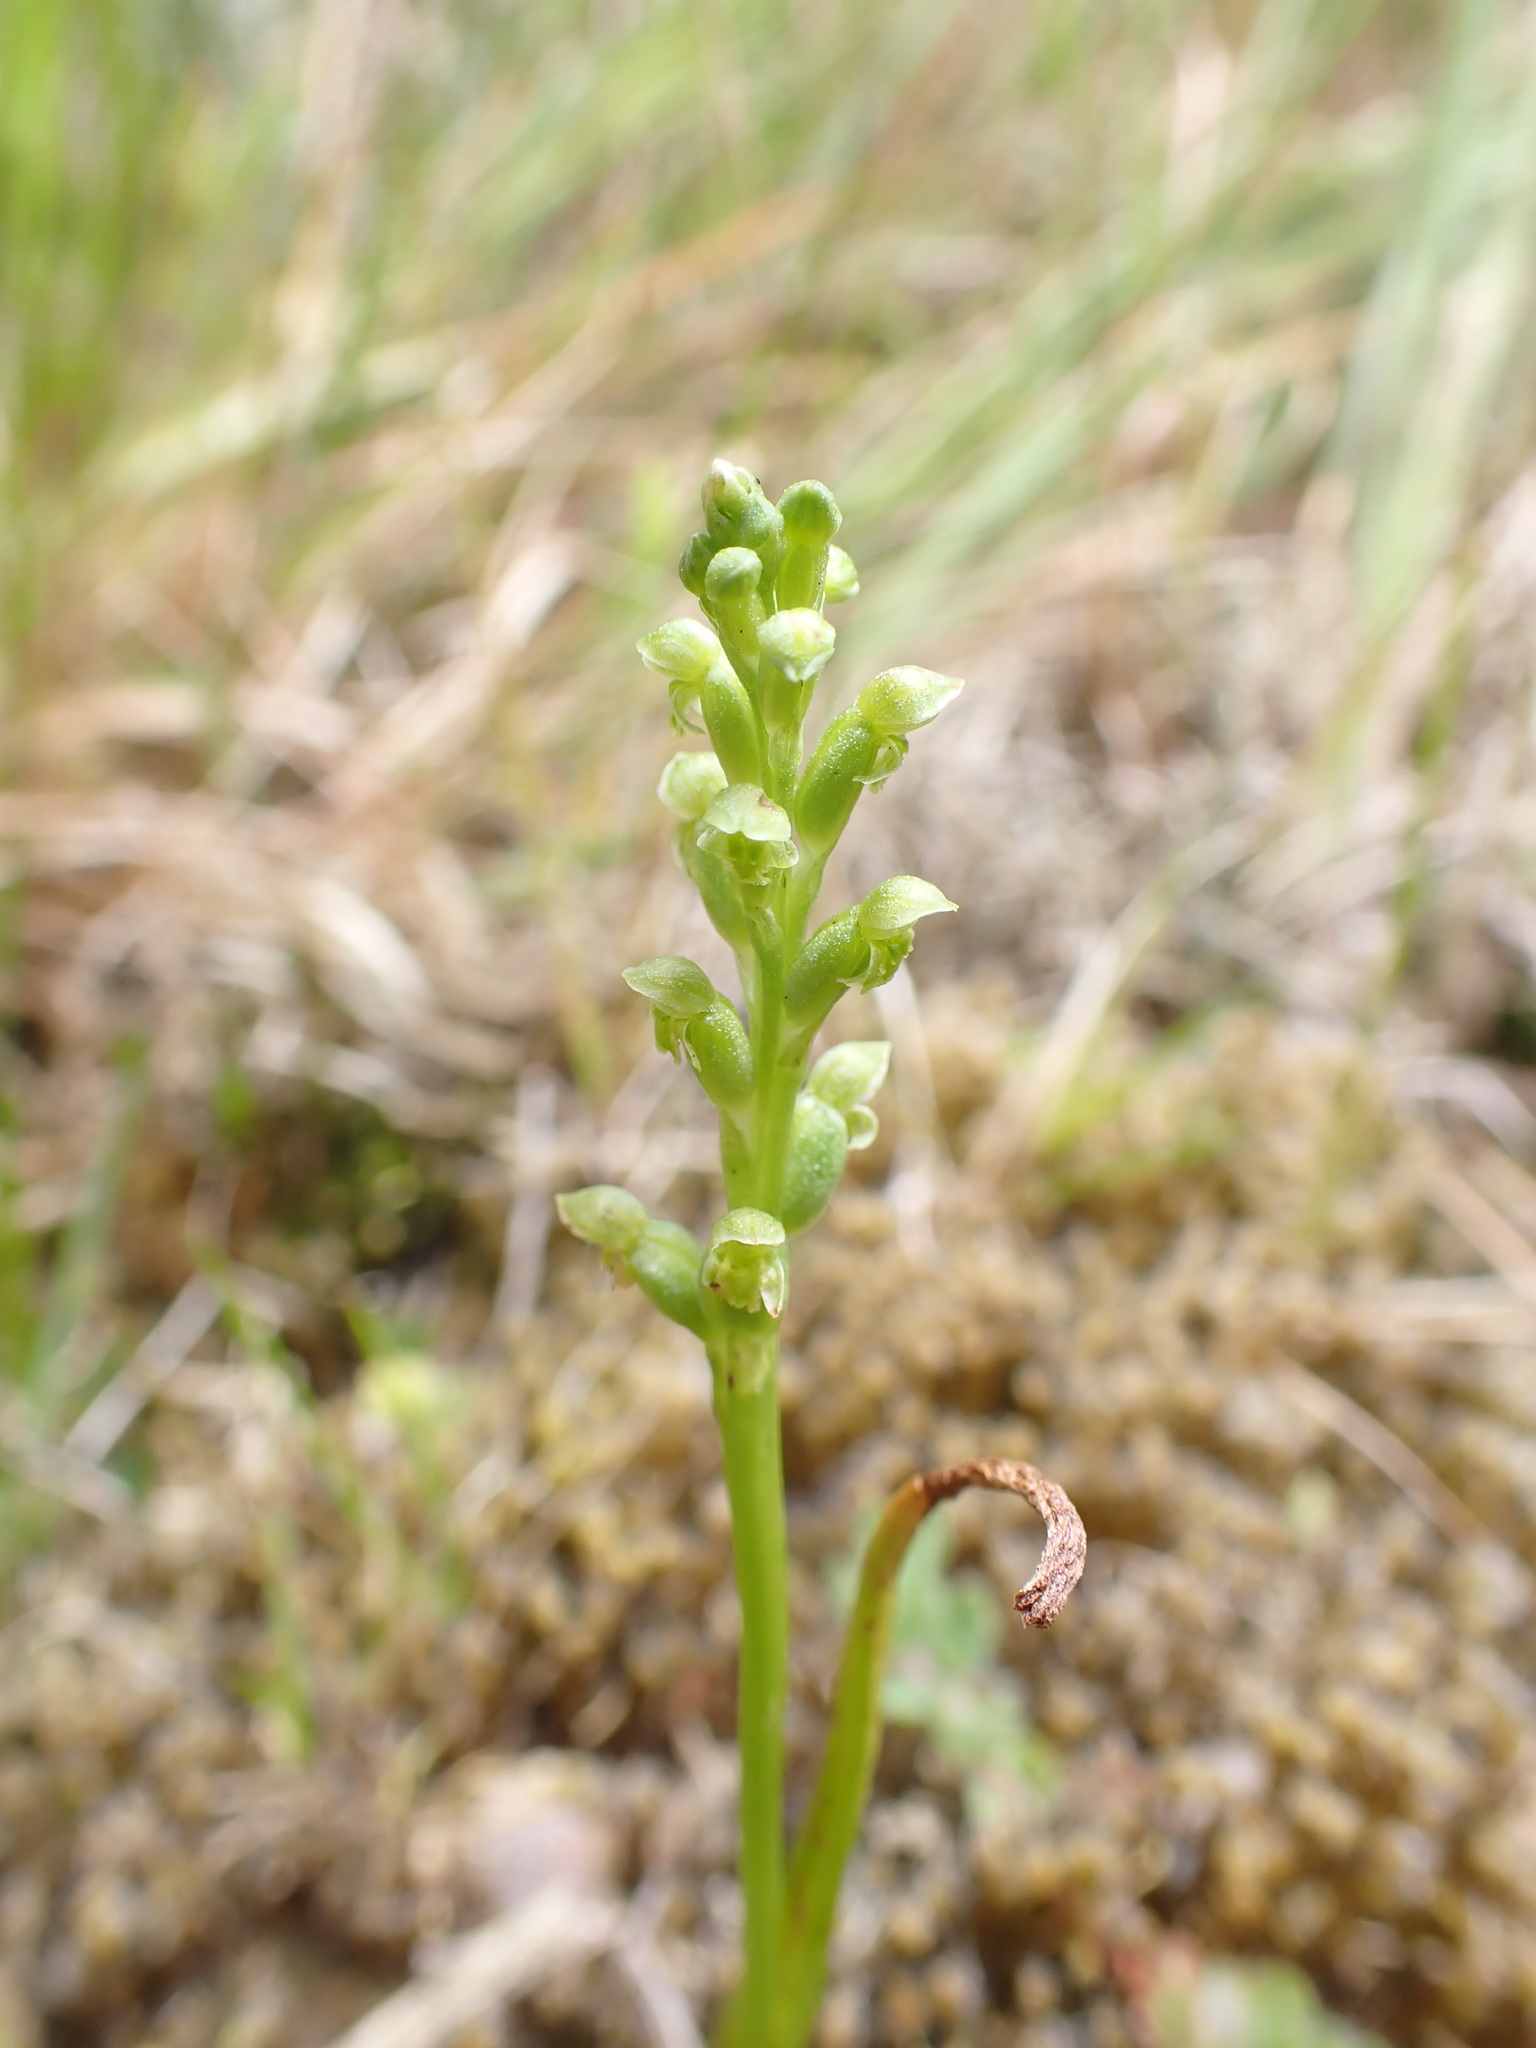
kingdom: Plantae
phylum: Tracheophyta
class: Liliopsida
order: Asparagales
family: Orchidaceae
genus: Microtis
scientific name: Microtis unifolia
